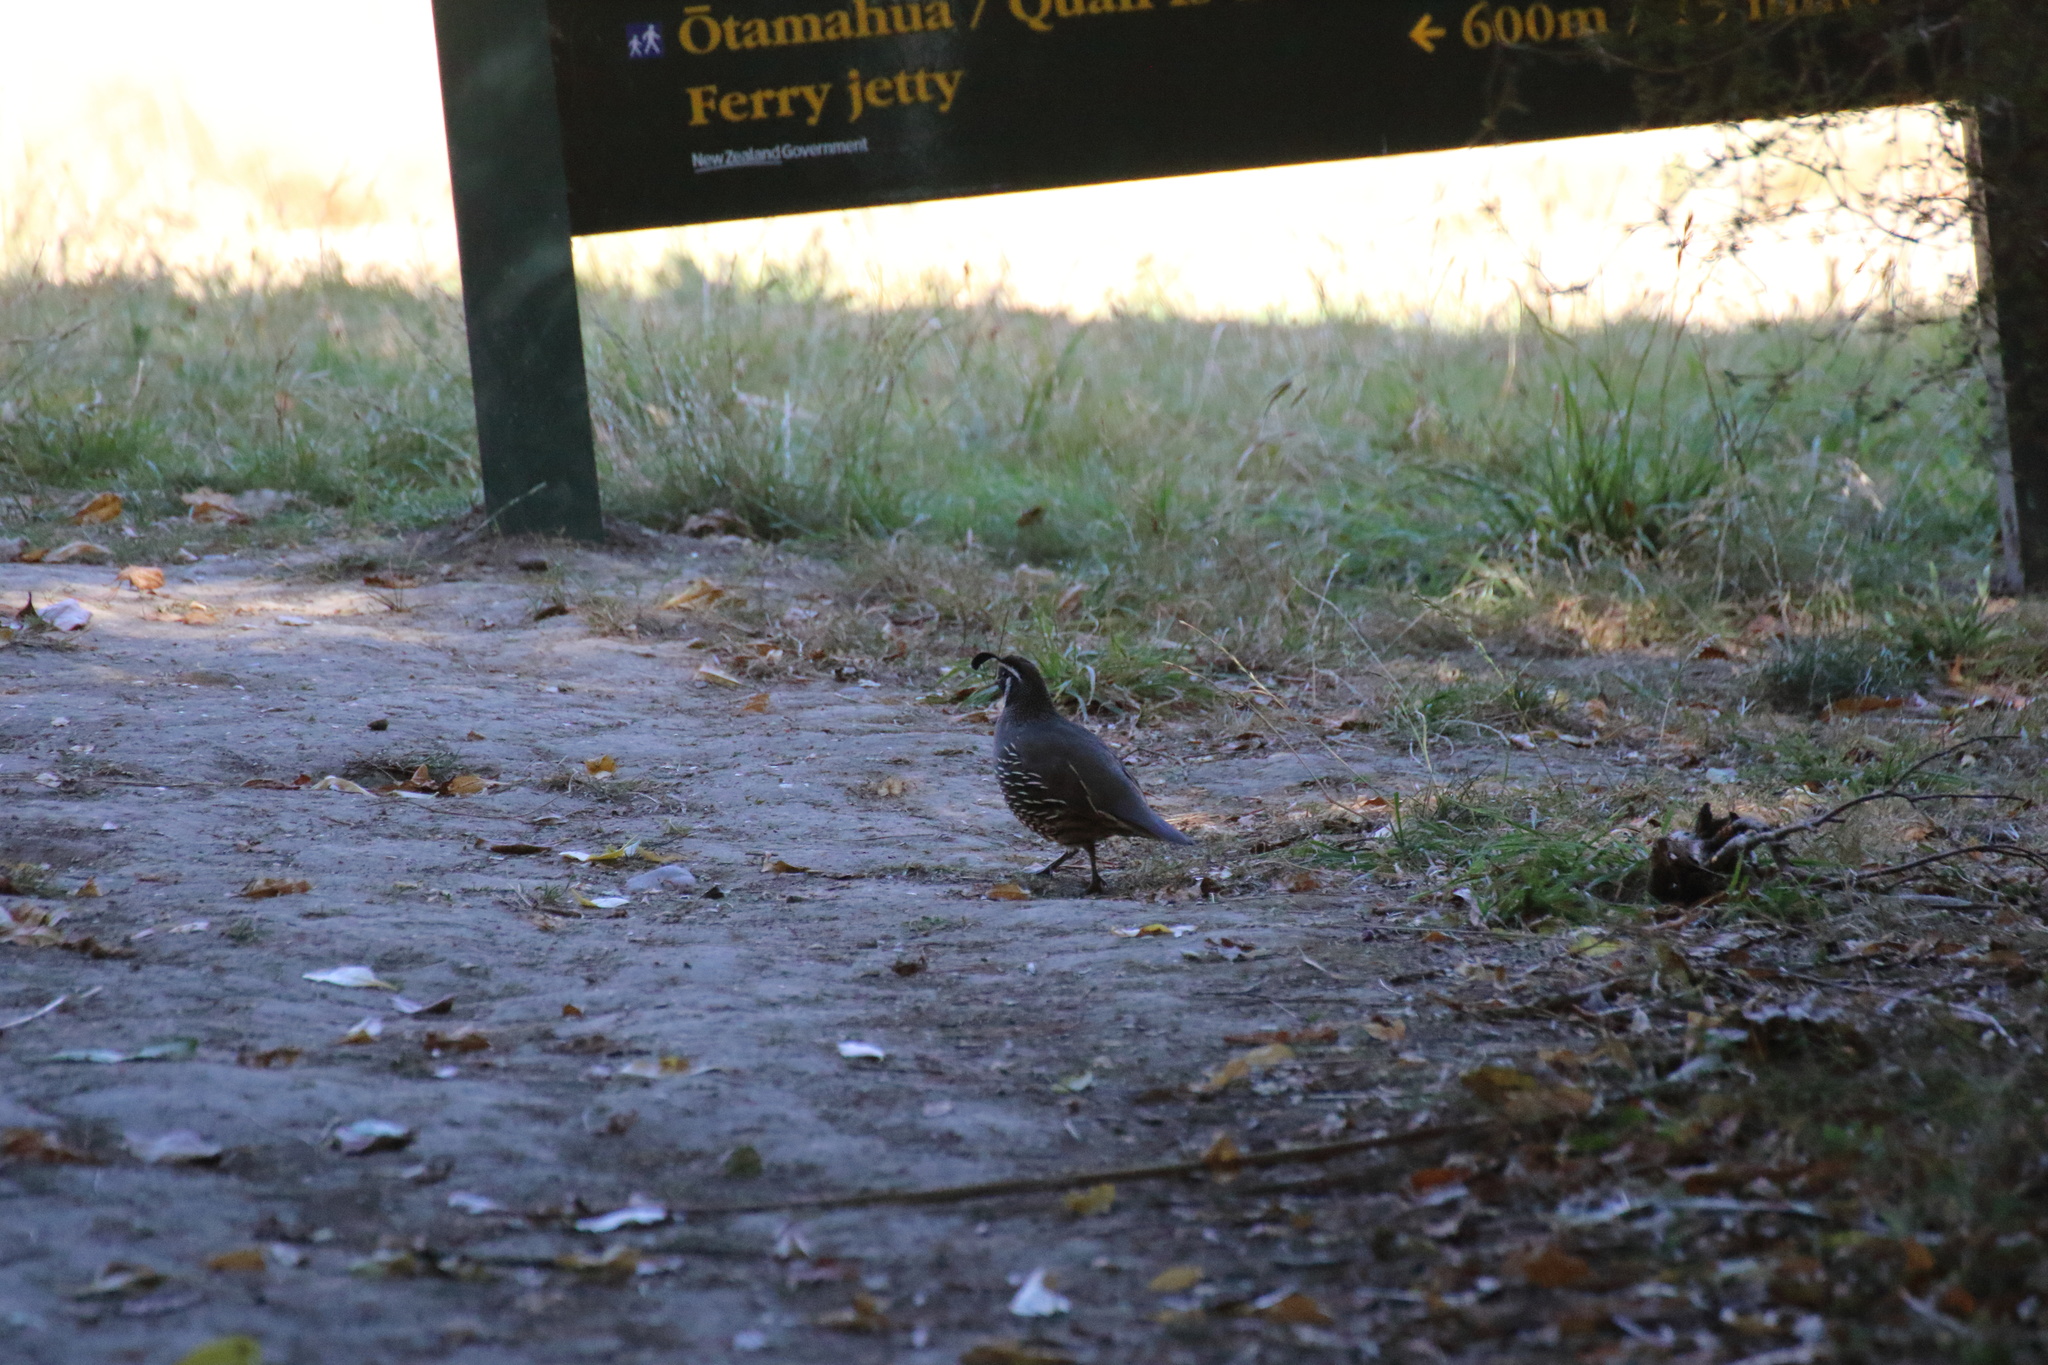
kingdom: Animalia
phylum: Chordata
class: Aves
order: Galliformes
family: Odontophoridae
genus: Callipepla
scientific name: Callipepla californica
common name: California quail
